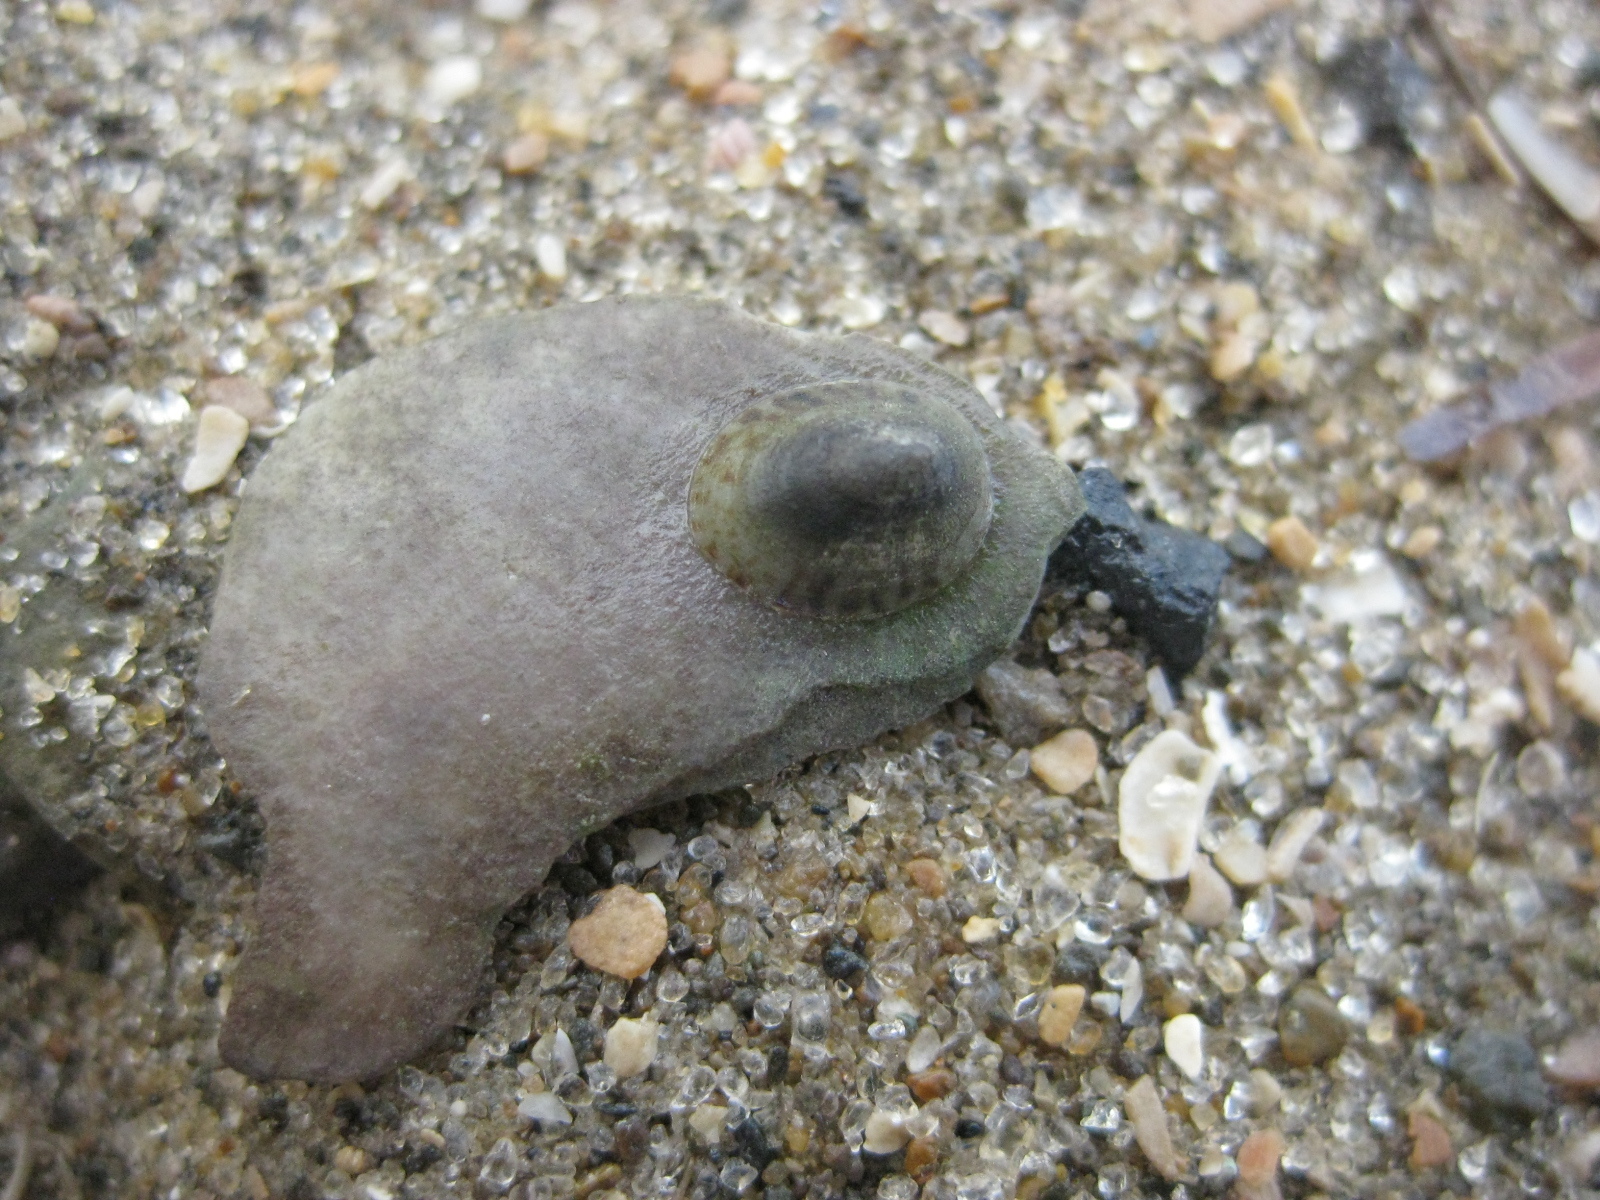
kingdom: Animalia
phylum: Mollusca
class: Gastropoda
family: Lottiidae
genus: Notoacmea
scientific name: Notoacmea potae
